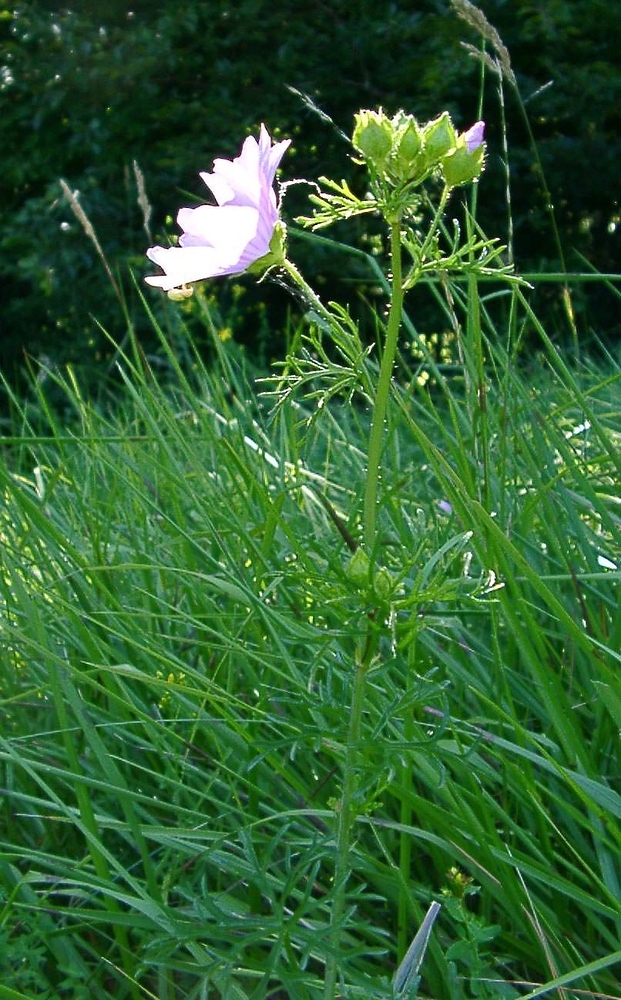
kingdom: Plantae
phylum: Tracheophyta
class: Magnoliopsida
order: Malvales
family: Malvaceae
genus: Malva
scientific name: Malva moschata
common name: Musk mallow
